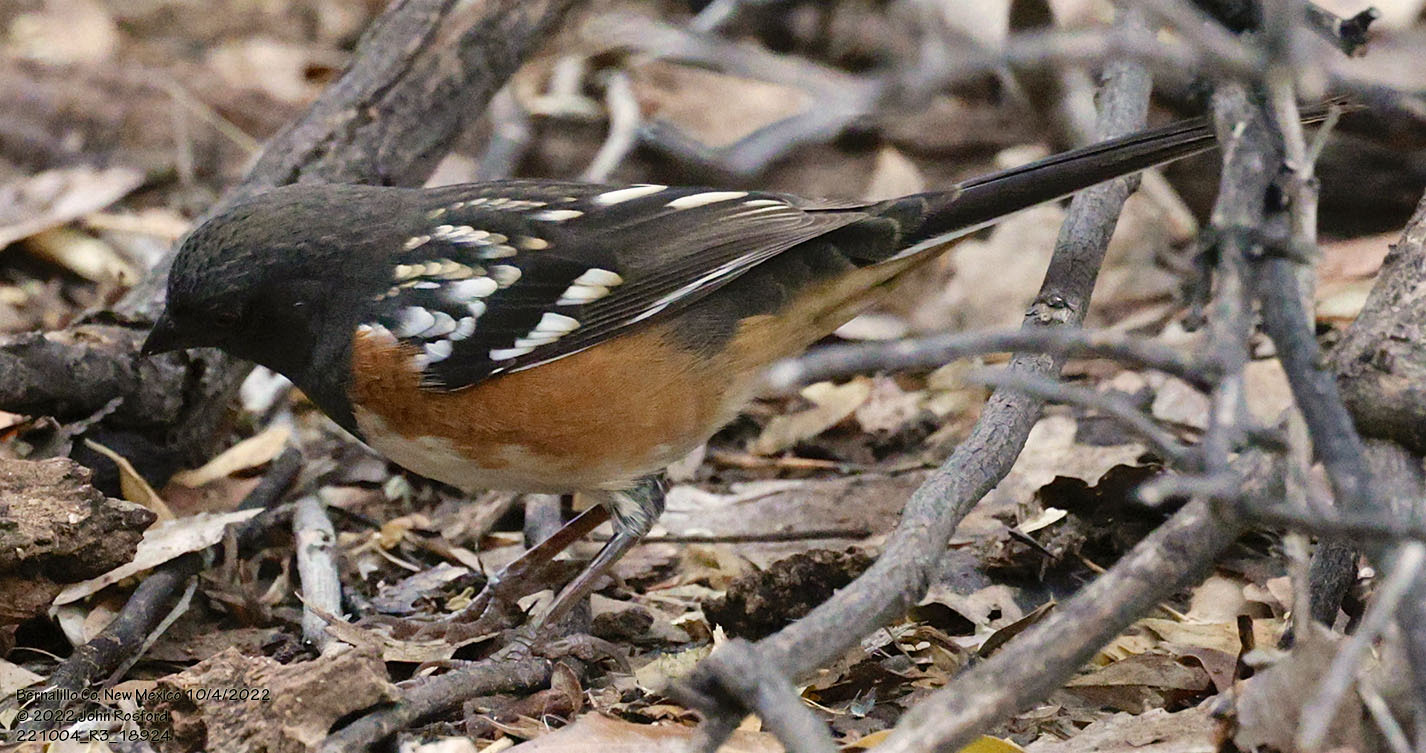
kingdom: Animalia
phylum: Chordata
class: Aves
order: Passeriformes
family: Passerellidae
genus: Pipilo
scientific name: Pipilo maculatus
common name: Spotted towhee
